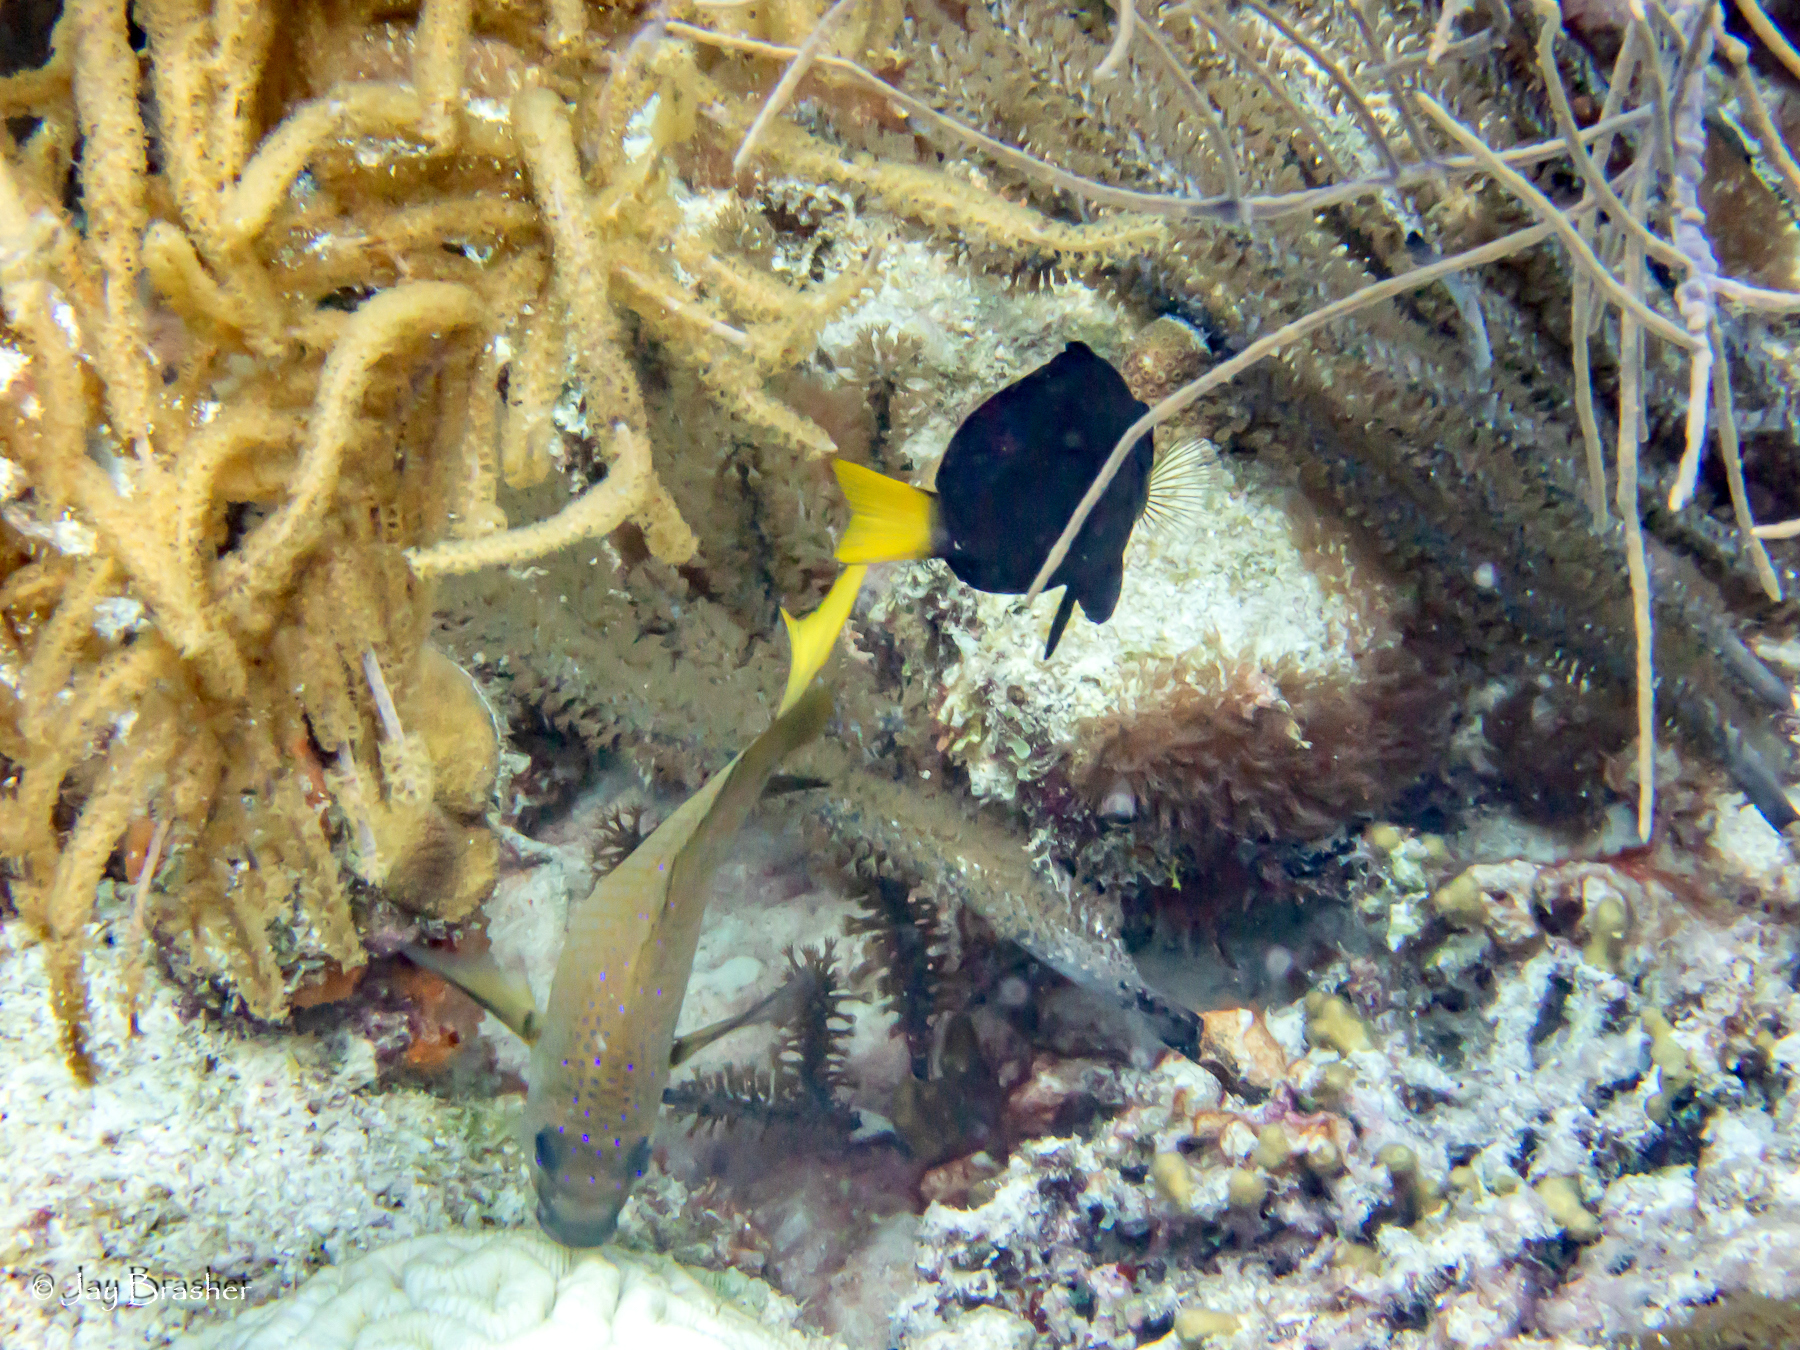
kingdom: Animalia
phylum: Chordata
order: Perciformes
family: Serranidae
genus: Hypoplectrus
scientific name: Hypoplectrus chlorurus
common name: Yellowtail hamlet
